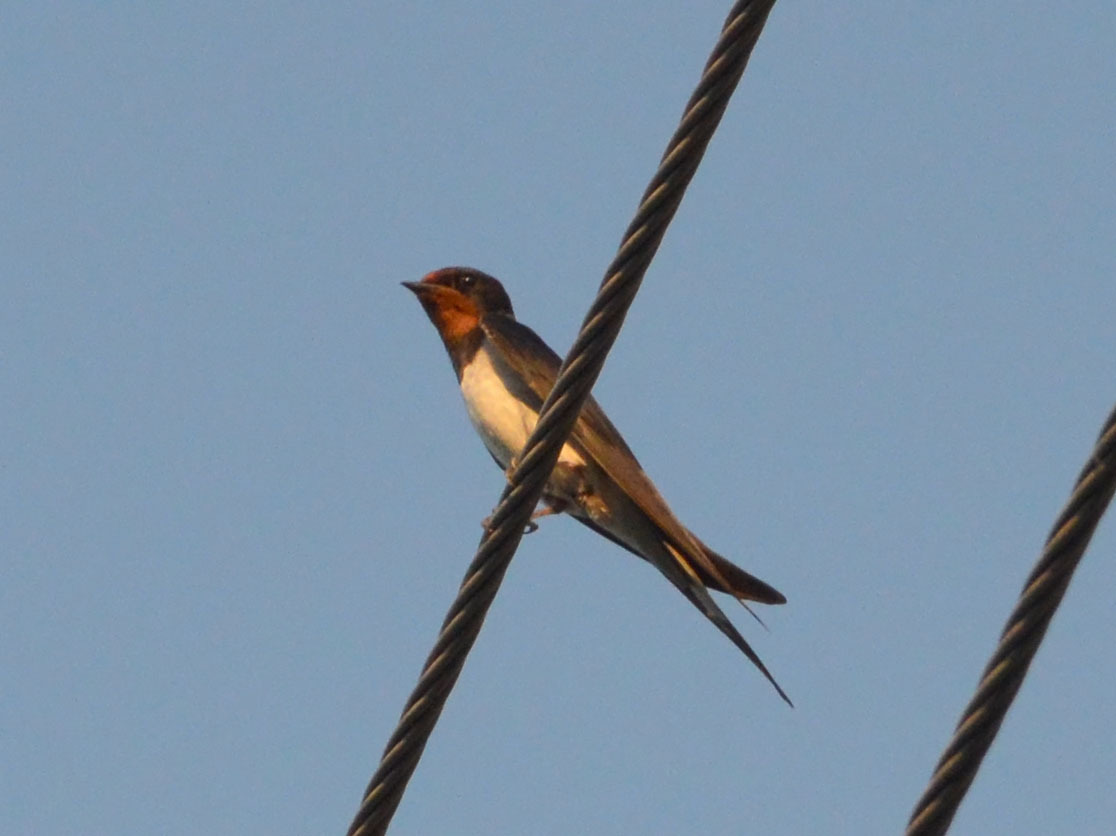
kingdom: Animalia
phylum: Chordata
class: Aves
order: Passeriformes
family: Hirundinidae
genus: Hirundo
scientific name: Hirundo rustica
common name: Barn swallow
